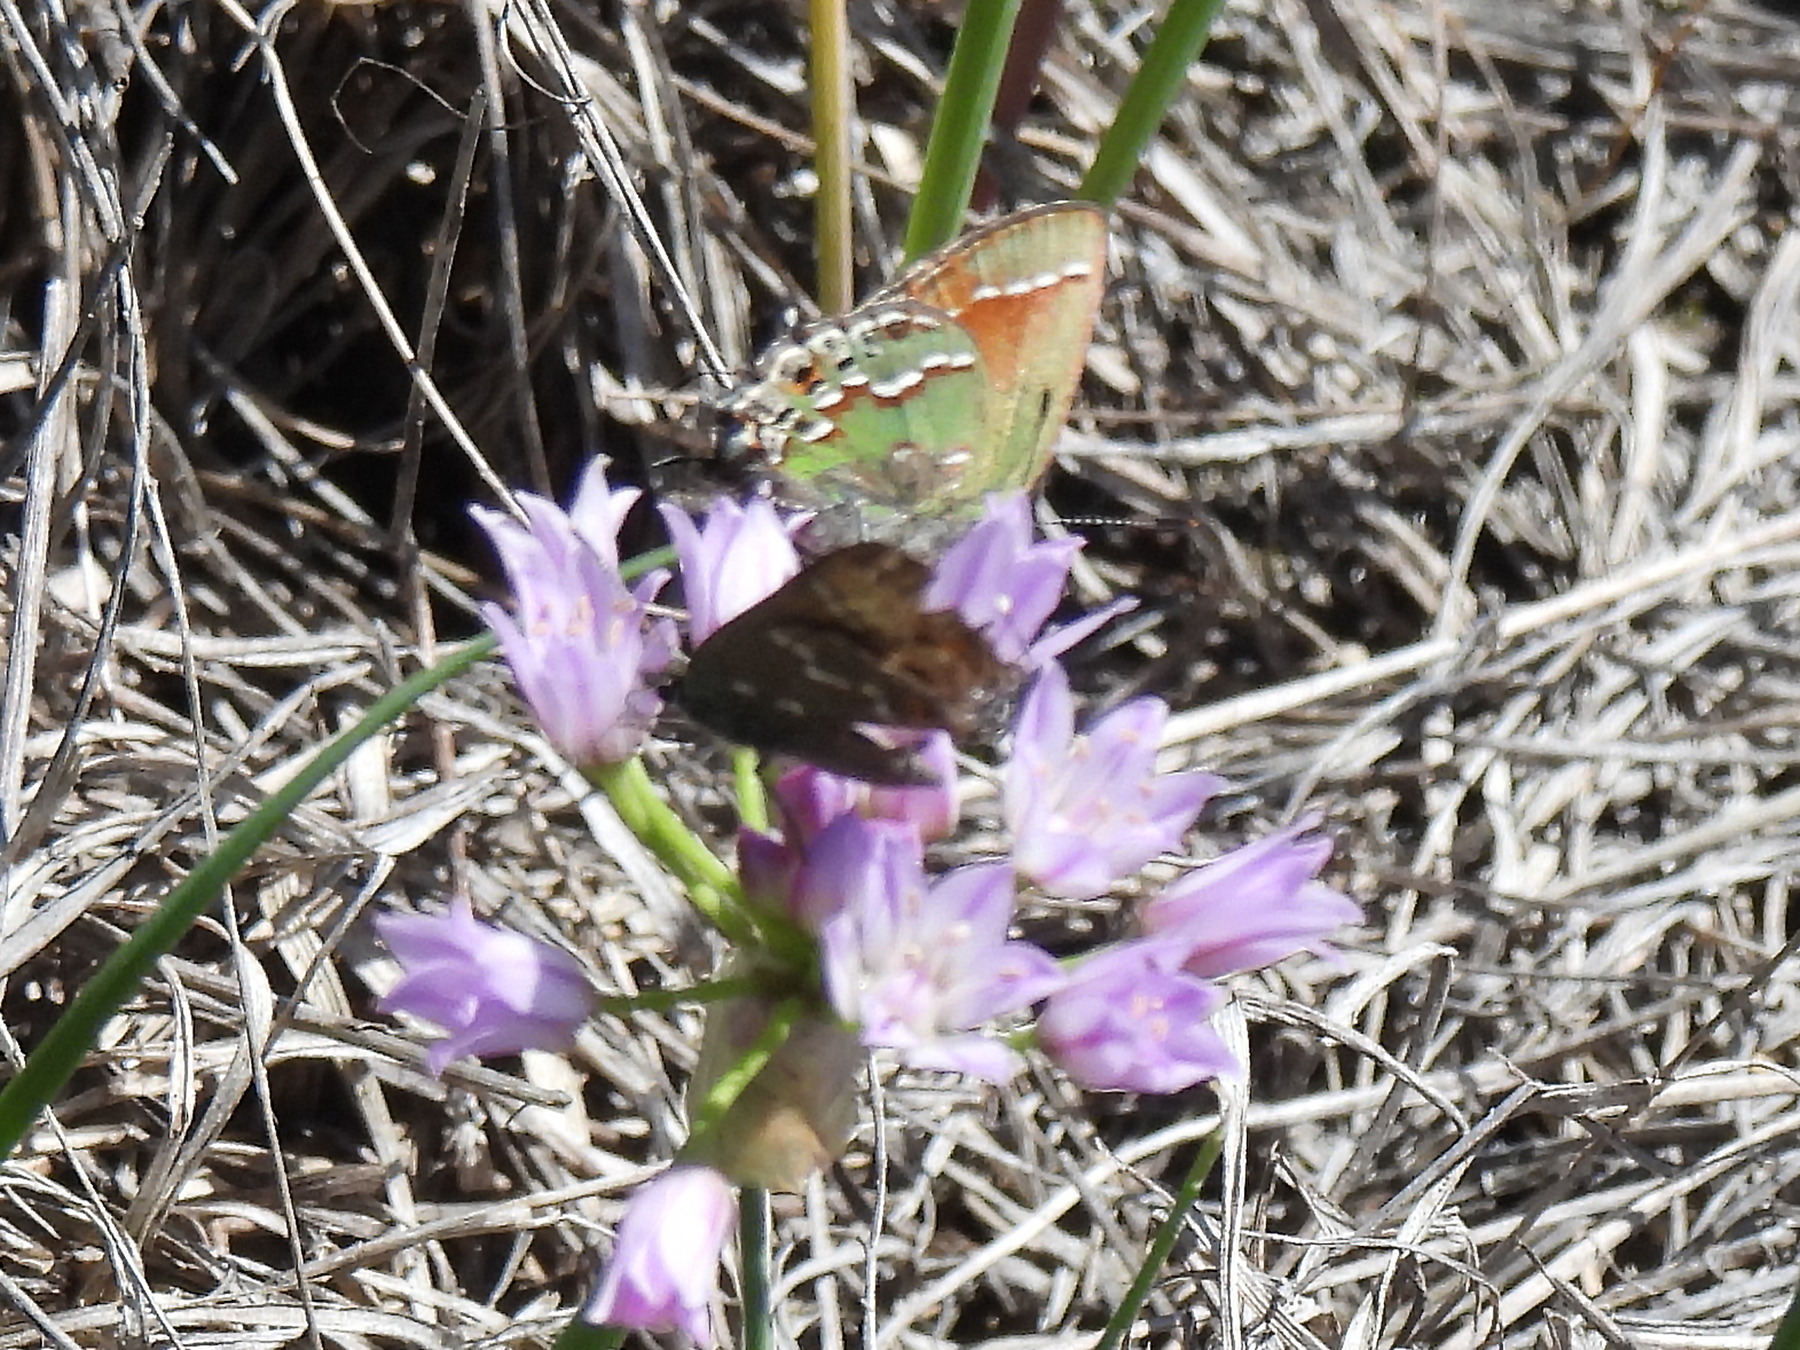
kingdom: Animalia
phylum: Arthropoda
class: Insecta
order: Lepidoptera
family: Lycaenidae
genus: Mitoura
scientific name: Mitoura gryneus
